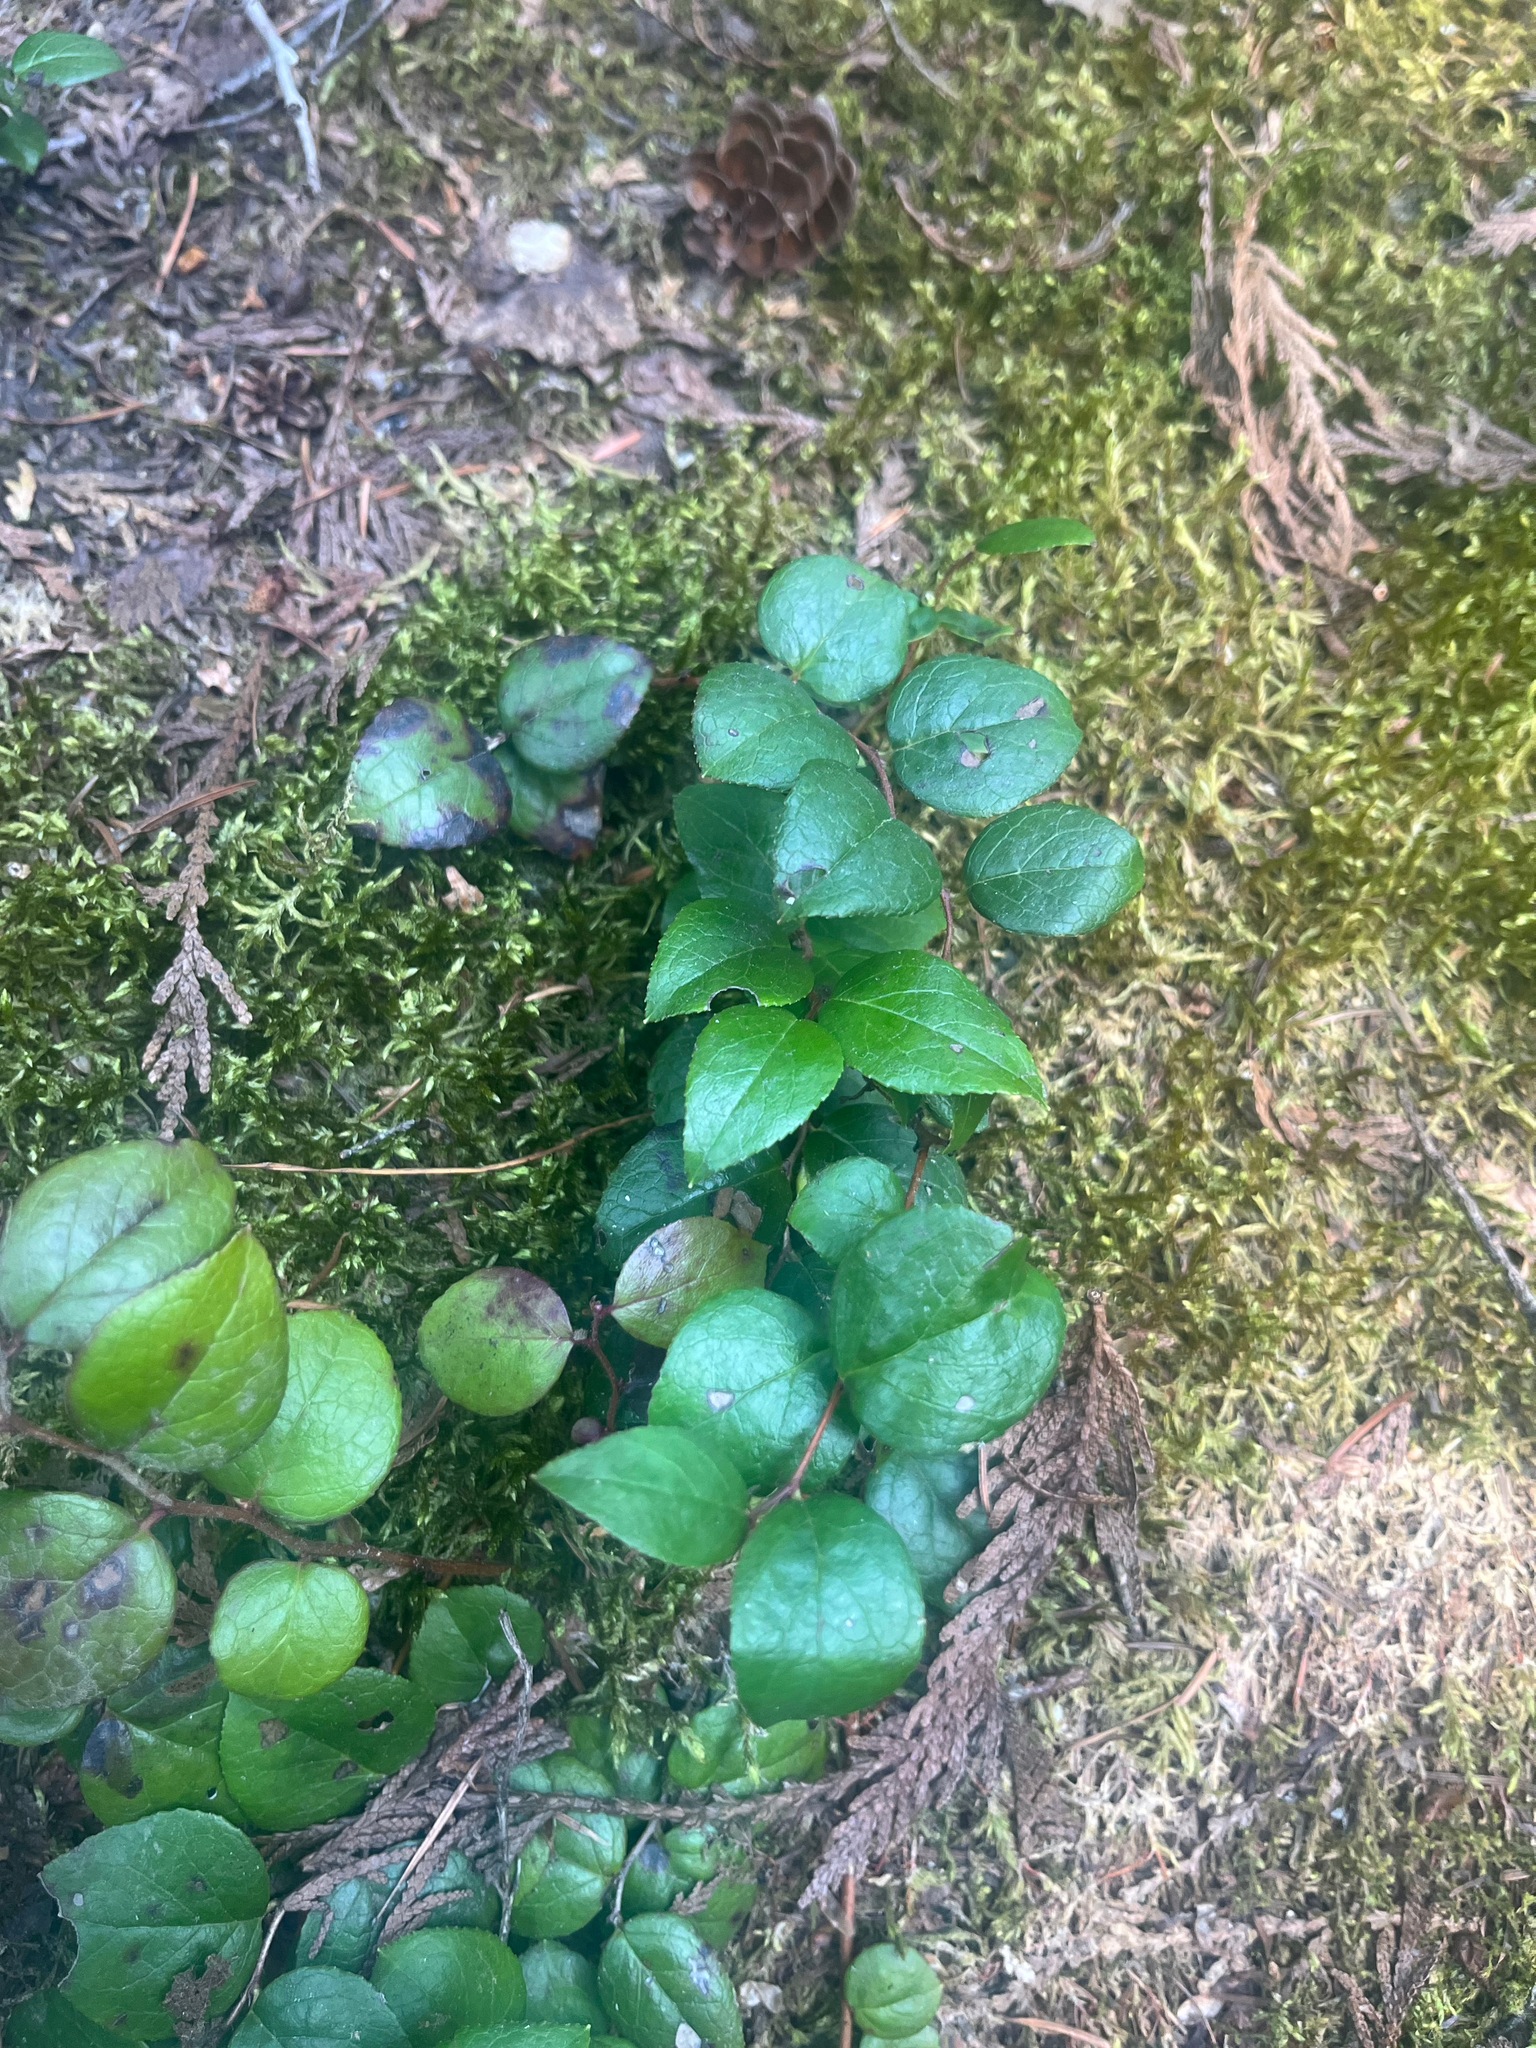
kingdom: Plantae
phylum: Tracheophyta
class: Magnoliopsida
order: Ericales
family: Ericaceae
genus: Gaultheria
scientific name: Gaultheria ovatifolia
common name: Oregon wintergreen
